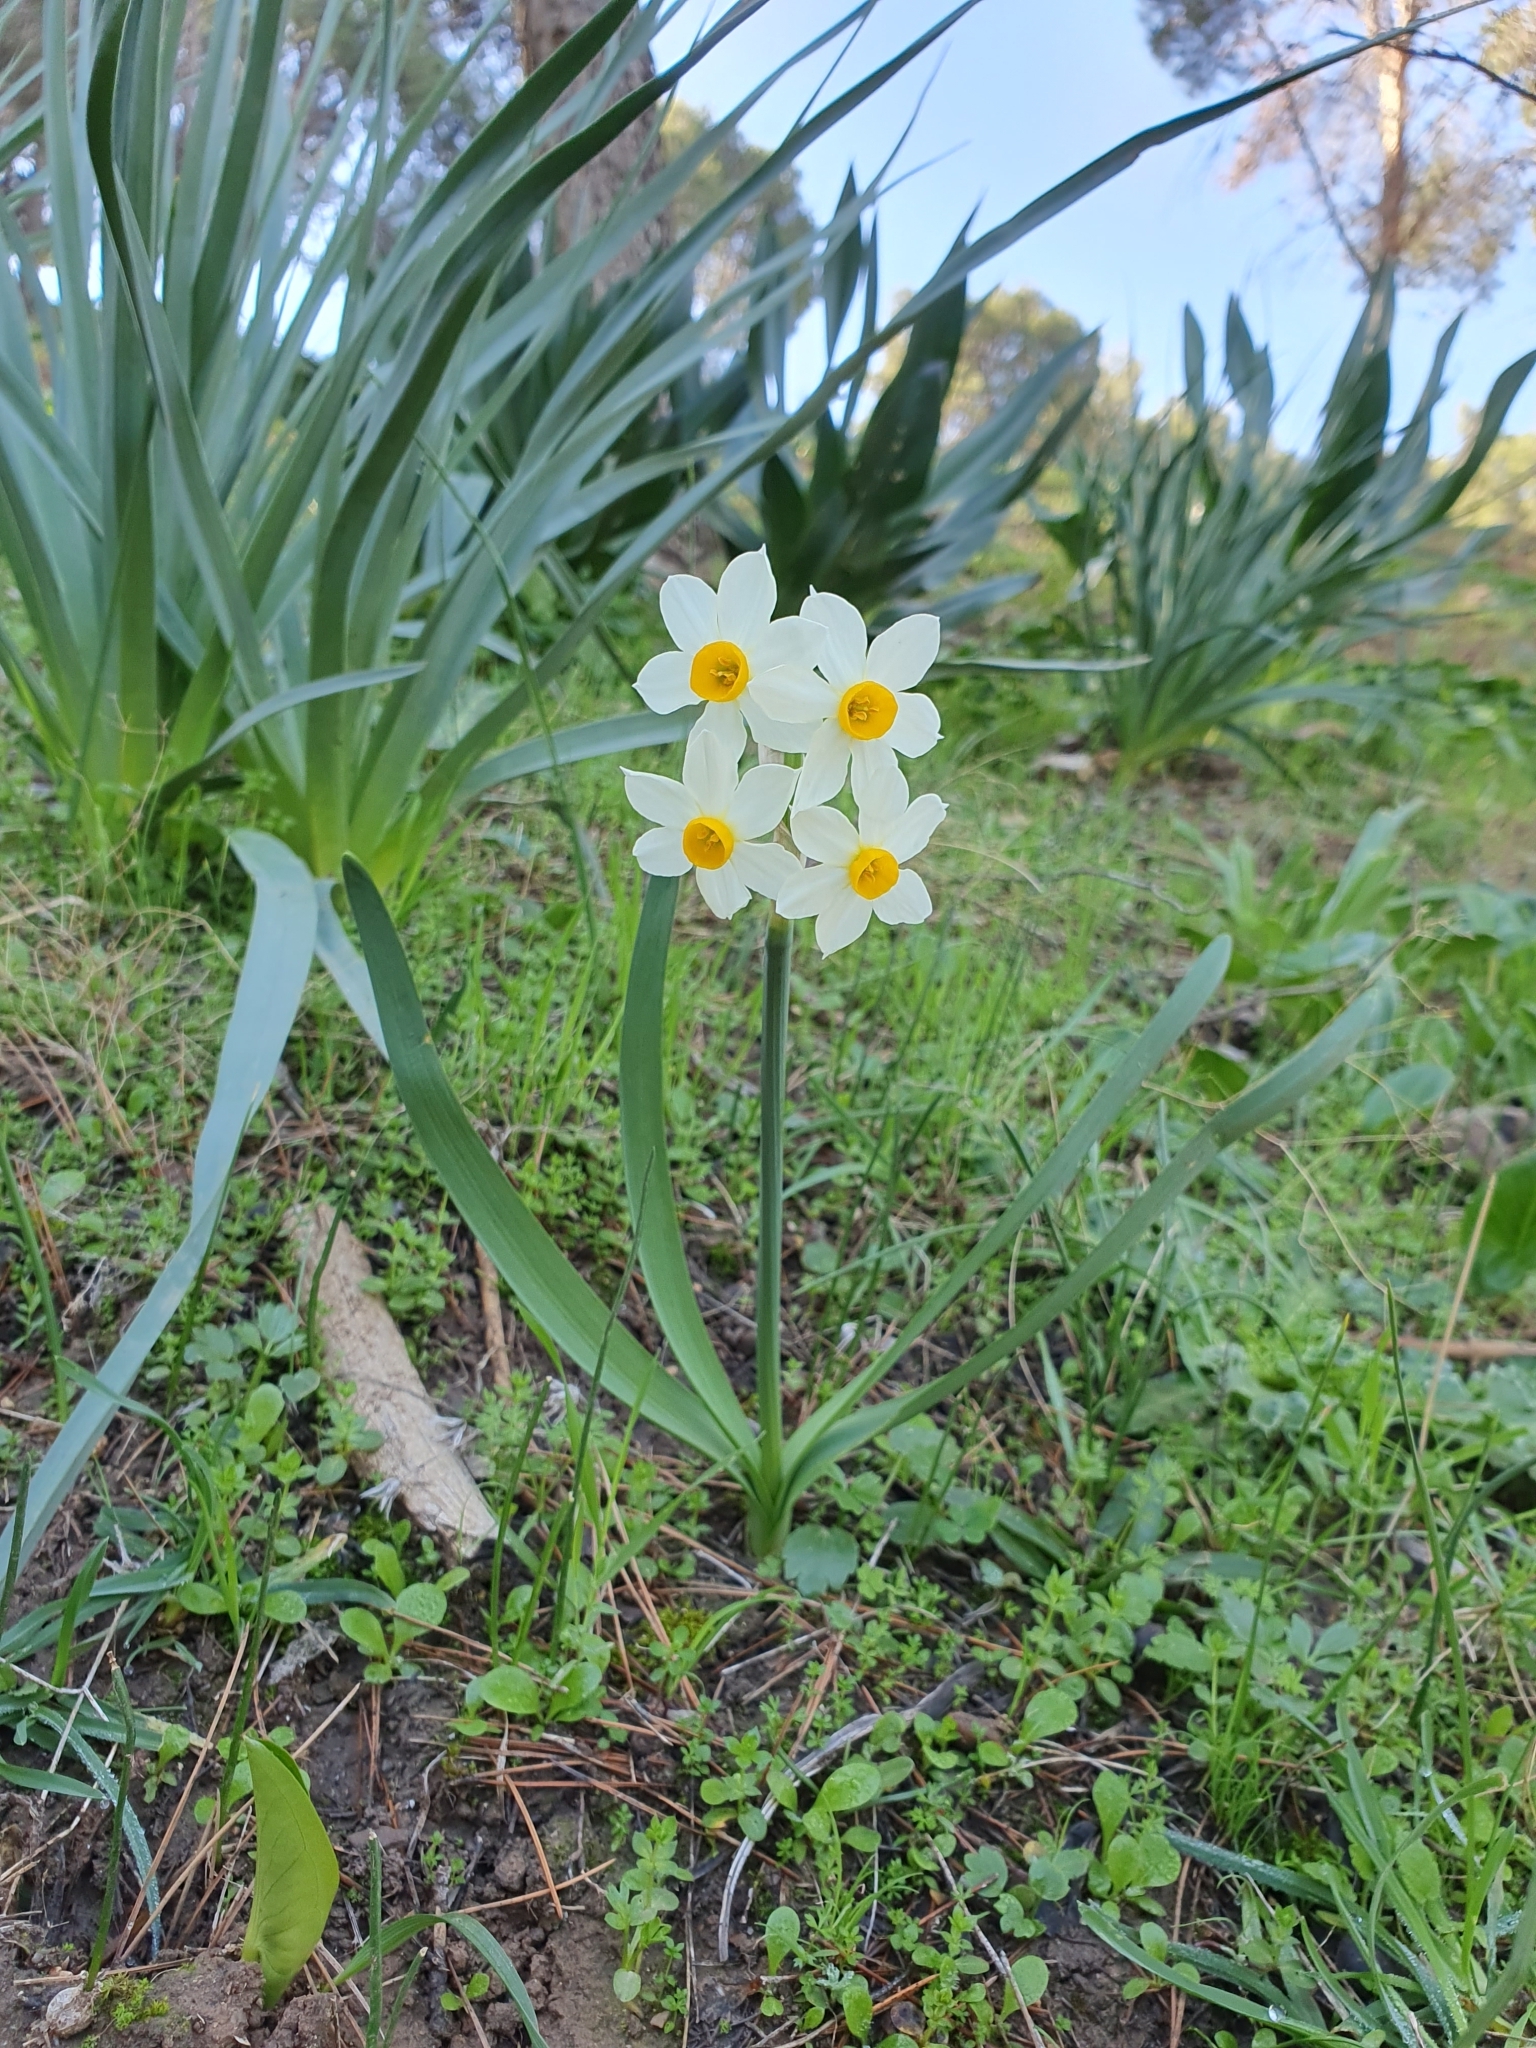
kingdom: Plantae
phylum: Tracheophyta
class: Liliopsida
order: Asparagales
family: Amaryllidaceae
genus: Narcissus
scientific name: Narcissus tazetta
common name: Bunch-flowered daffodil
